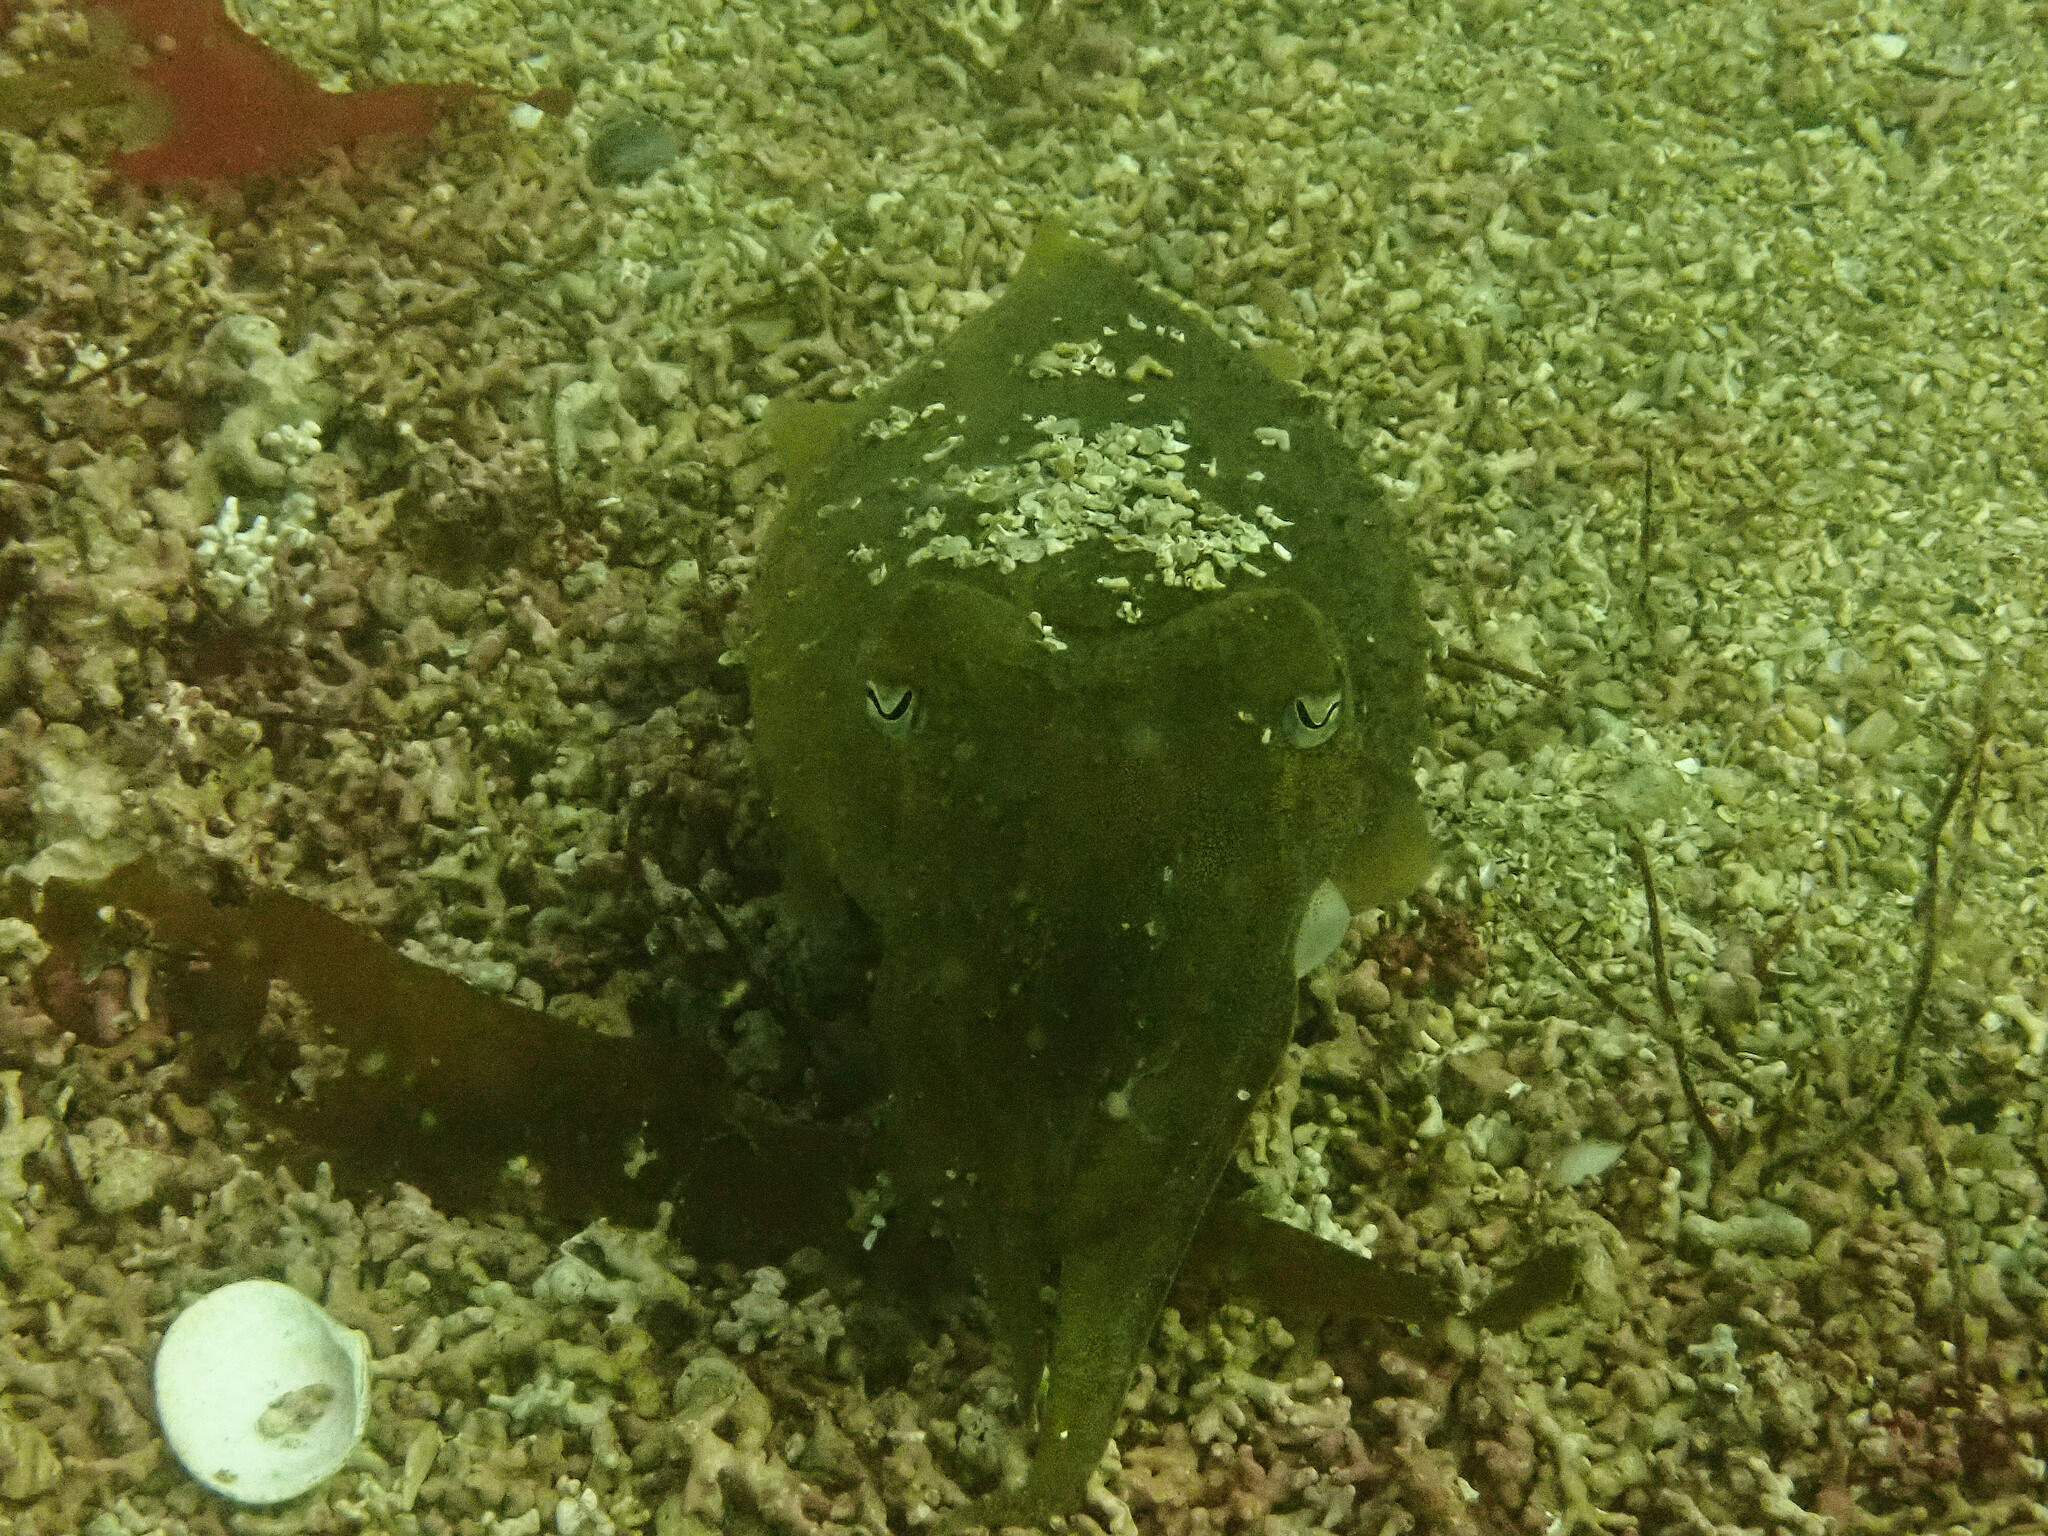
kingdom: Animalia
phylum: Mollusca
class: Cephalopoda
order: Sepiida
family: Sepiidae
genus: Sepia
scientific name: Sepia officinalis
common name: Common cuttlefish
